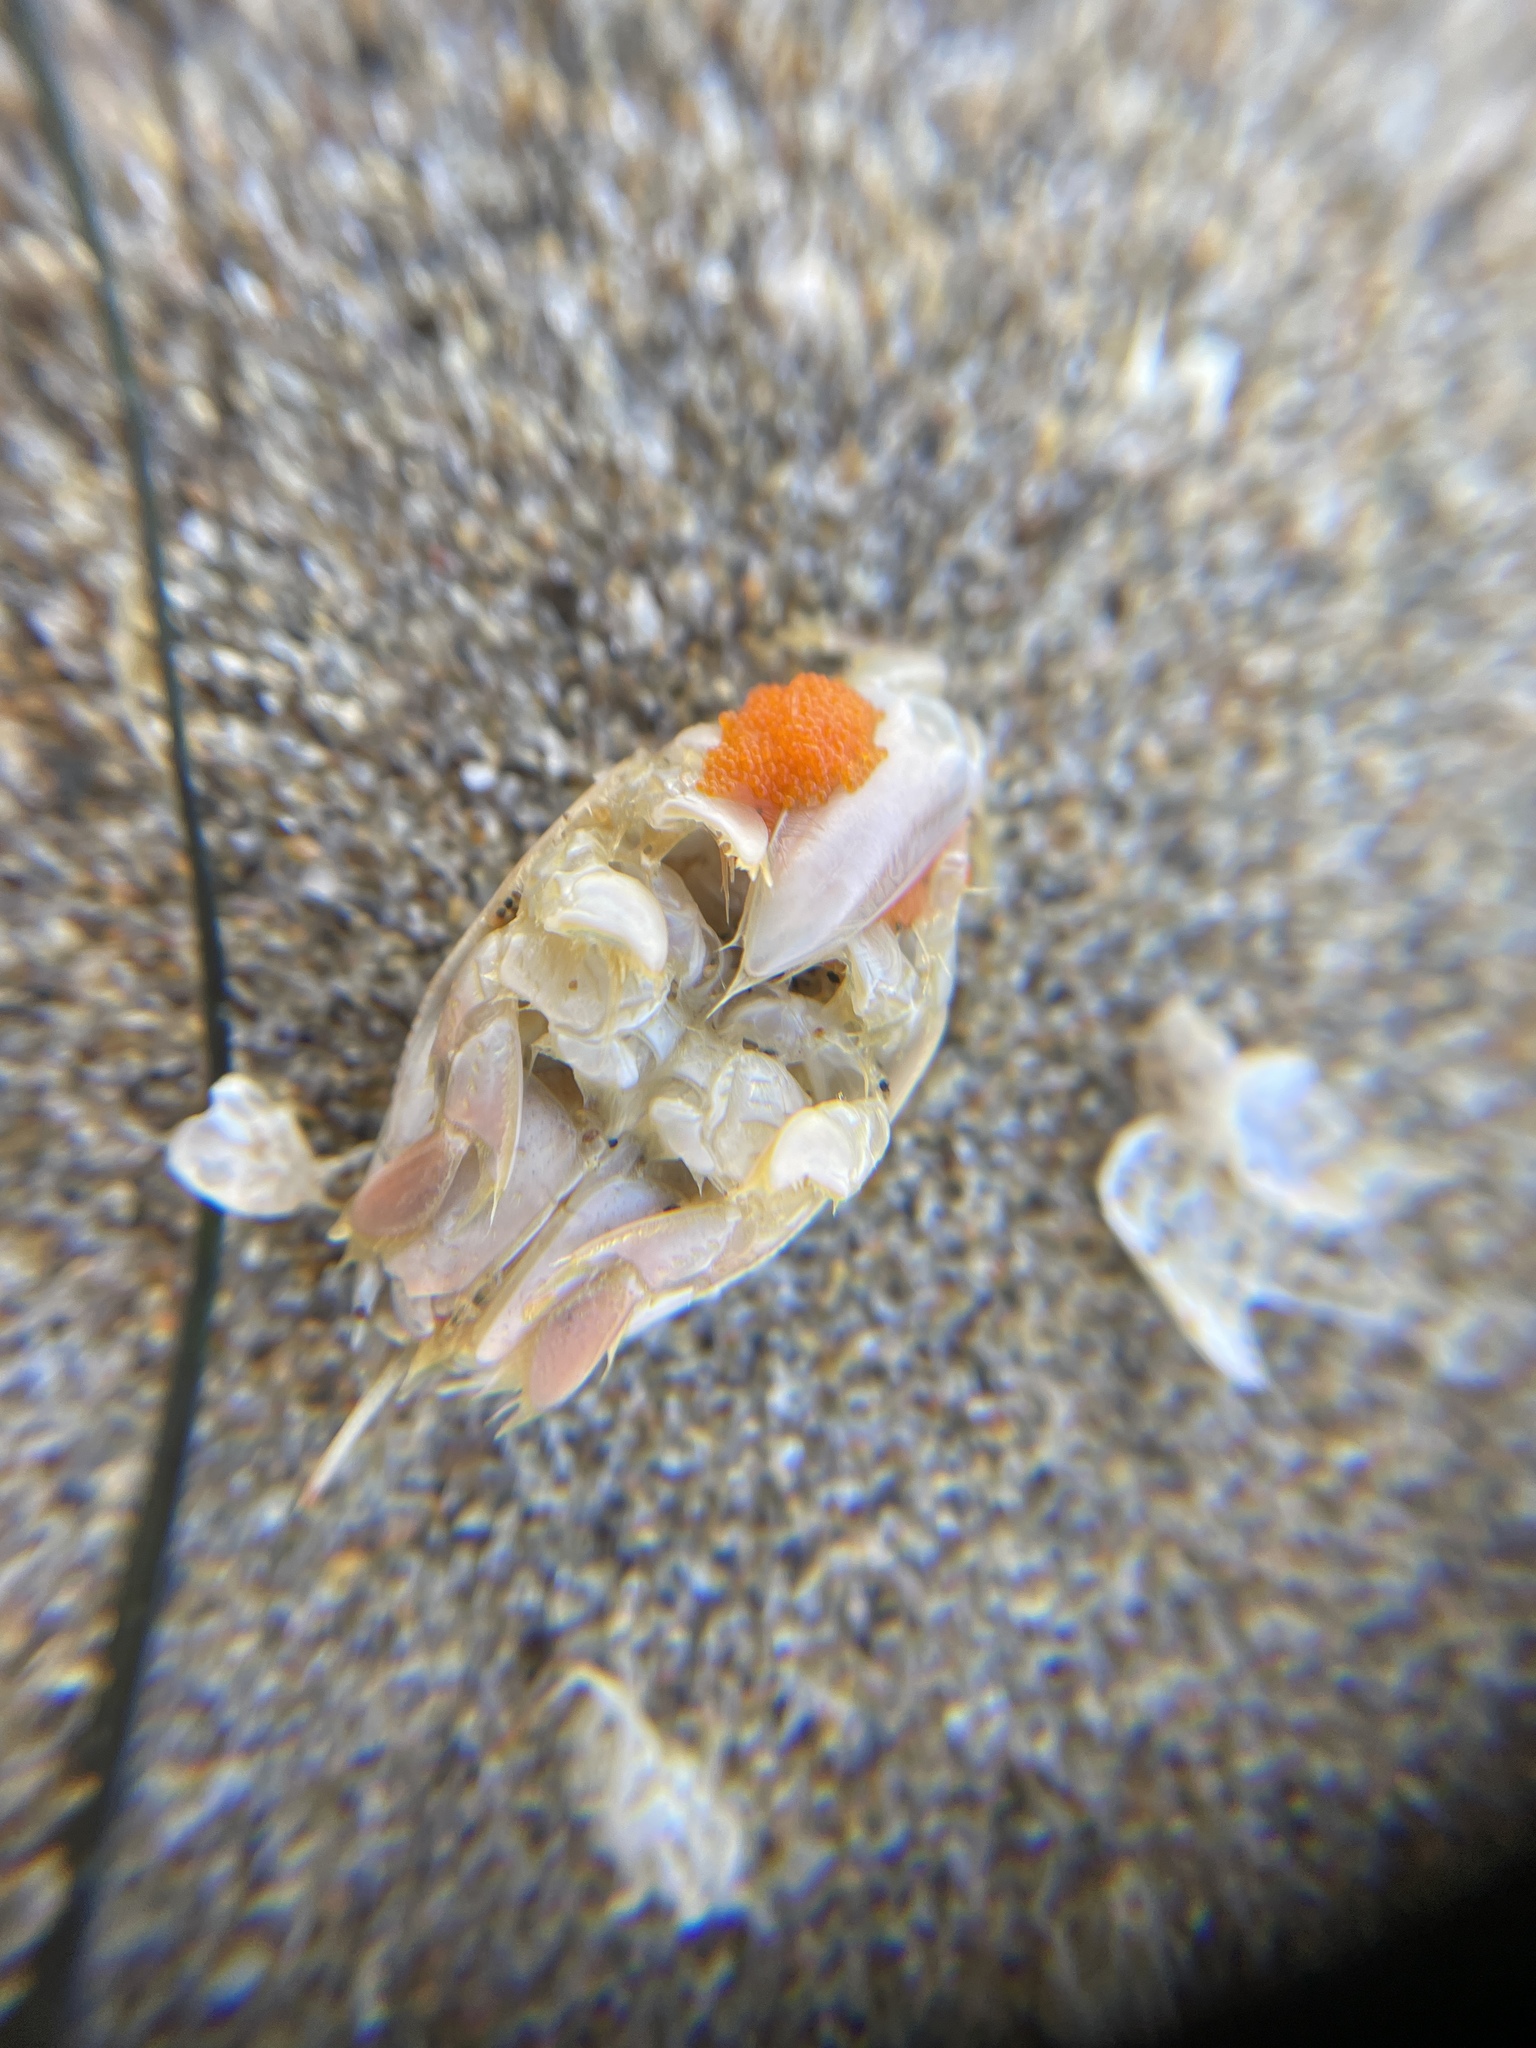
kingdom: Animalia
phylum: Arthropoda
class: Malacostraca
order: Decapoda
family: Hippidae
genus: Emerita
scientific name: Emerita analoga
